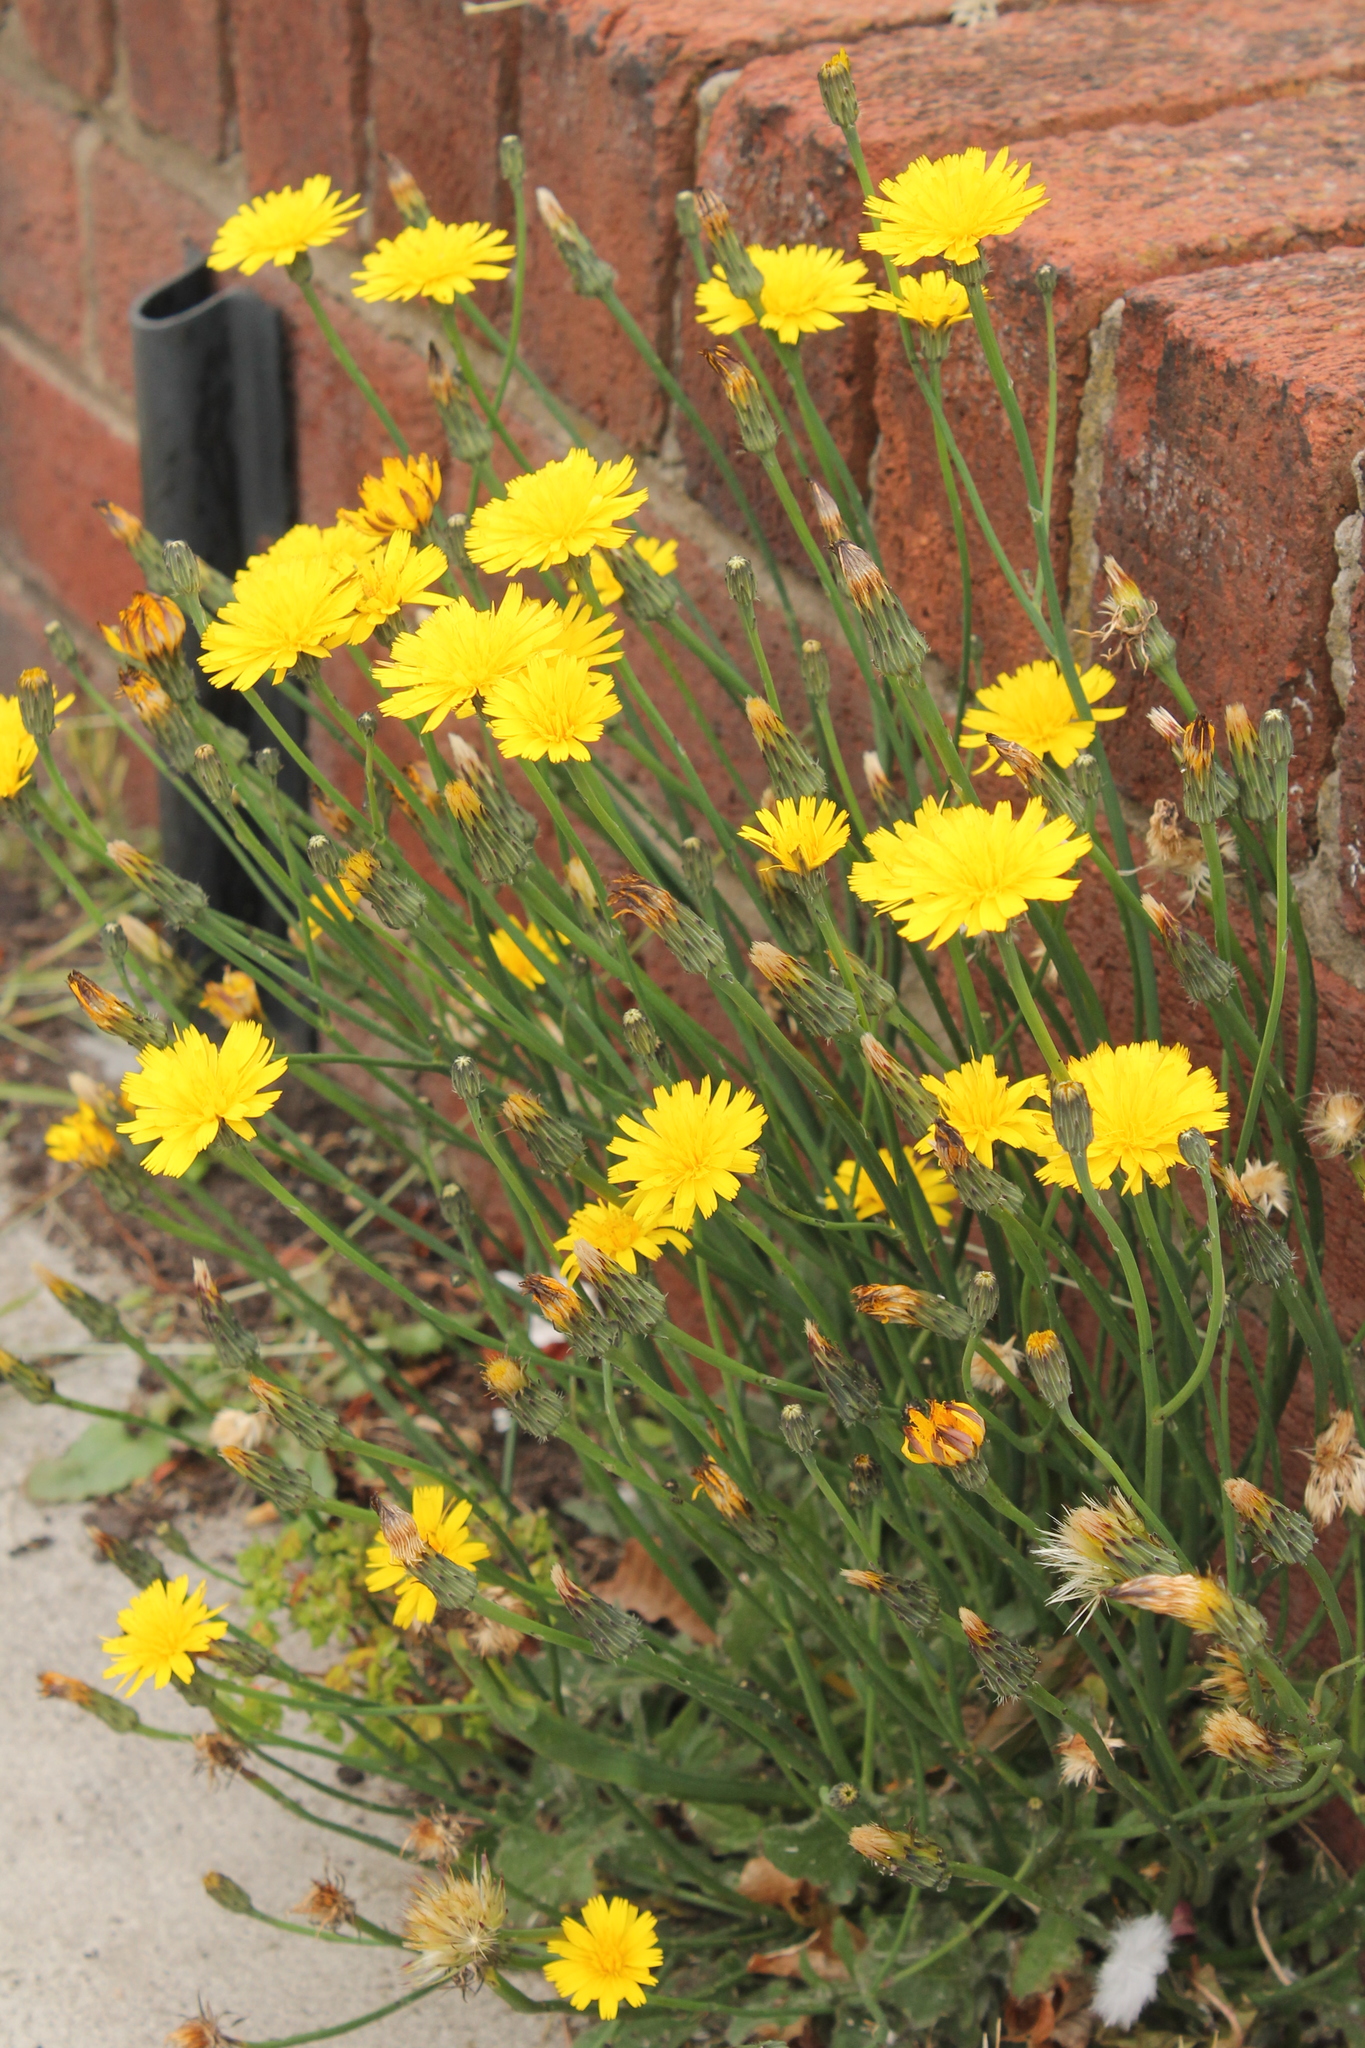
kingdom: Plantae
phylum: Tracheophyta
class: Magnoliopsida
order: Asterales
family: Asteraceae
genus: Hypochaeris
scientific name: Hypochaeris radicata
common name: Flatweed
